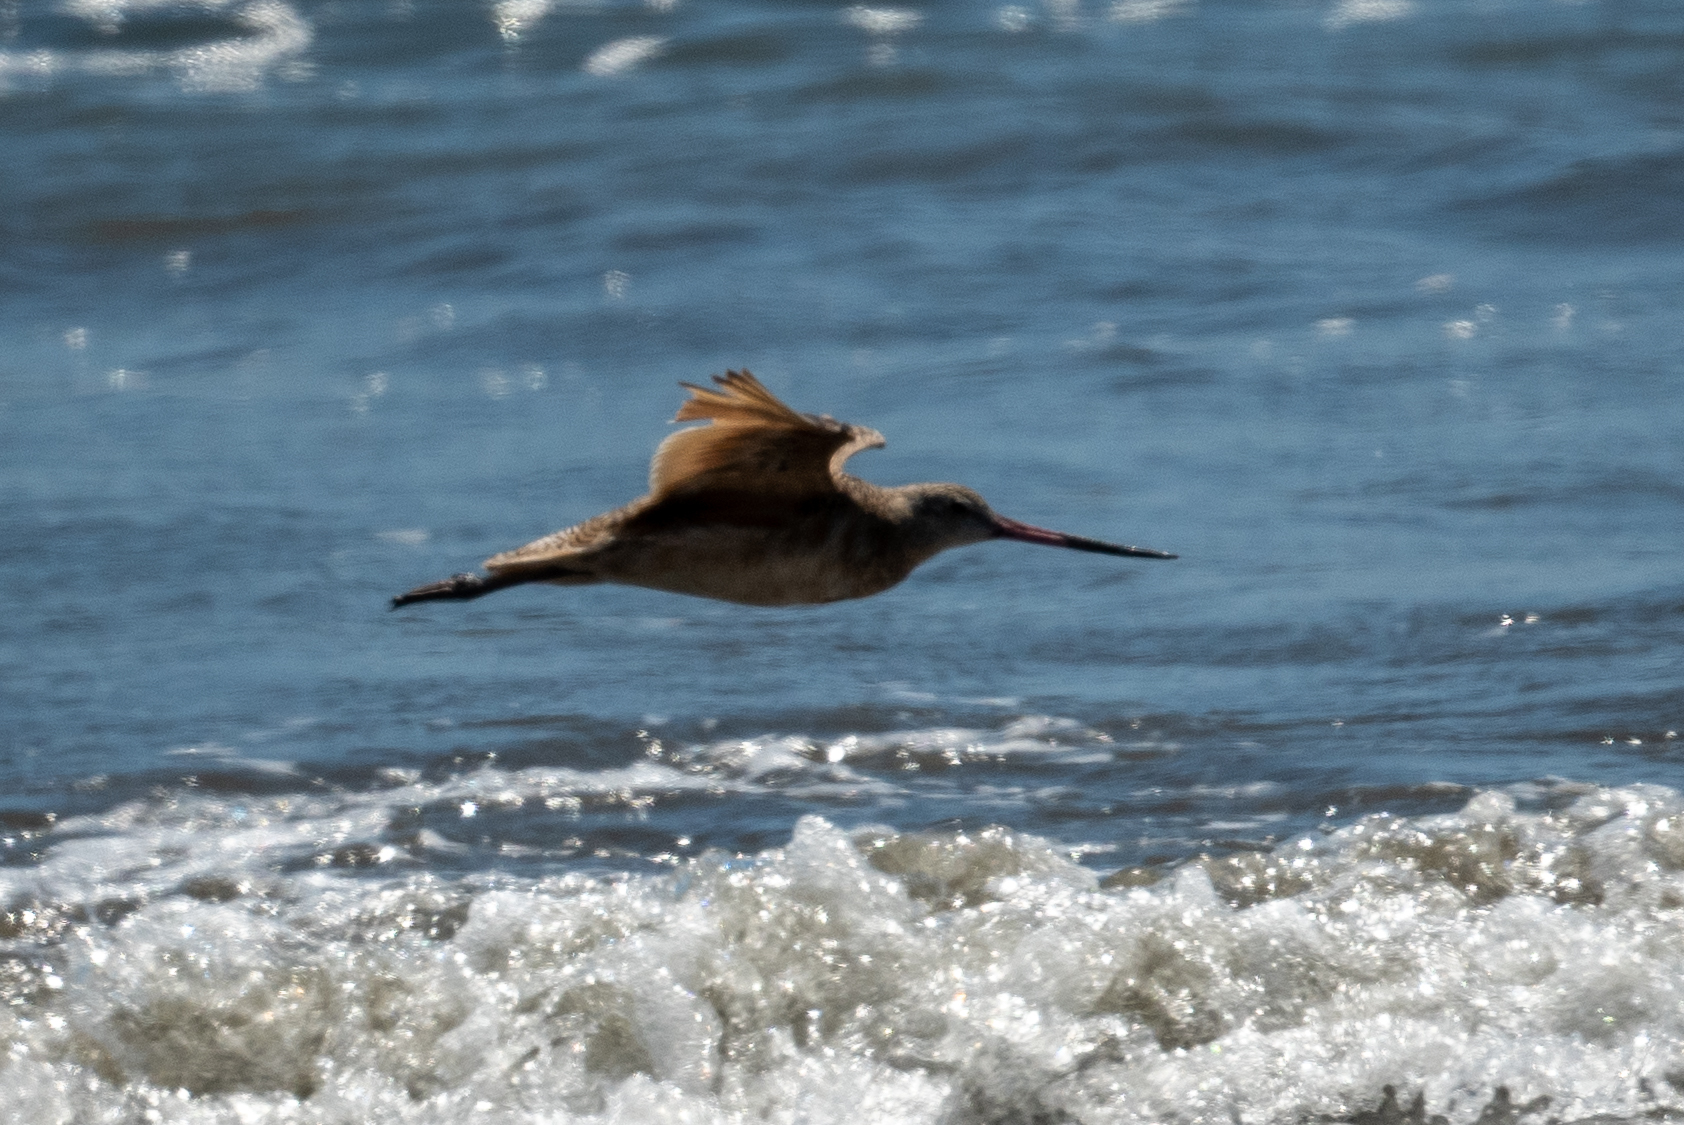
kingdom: Animalia
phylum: Chordata
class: Aves
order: Charadriiformes
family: Scolopacidae
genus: Limosa
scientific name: Limosa fedoa
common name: Marbled godwit
